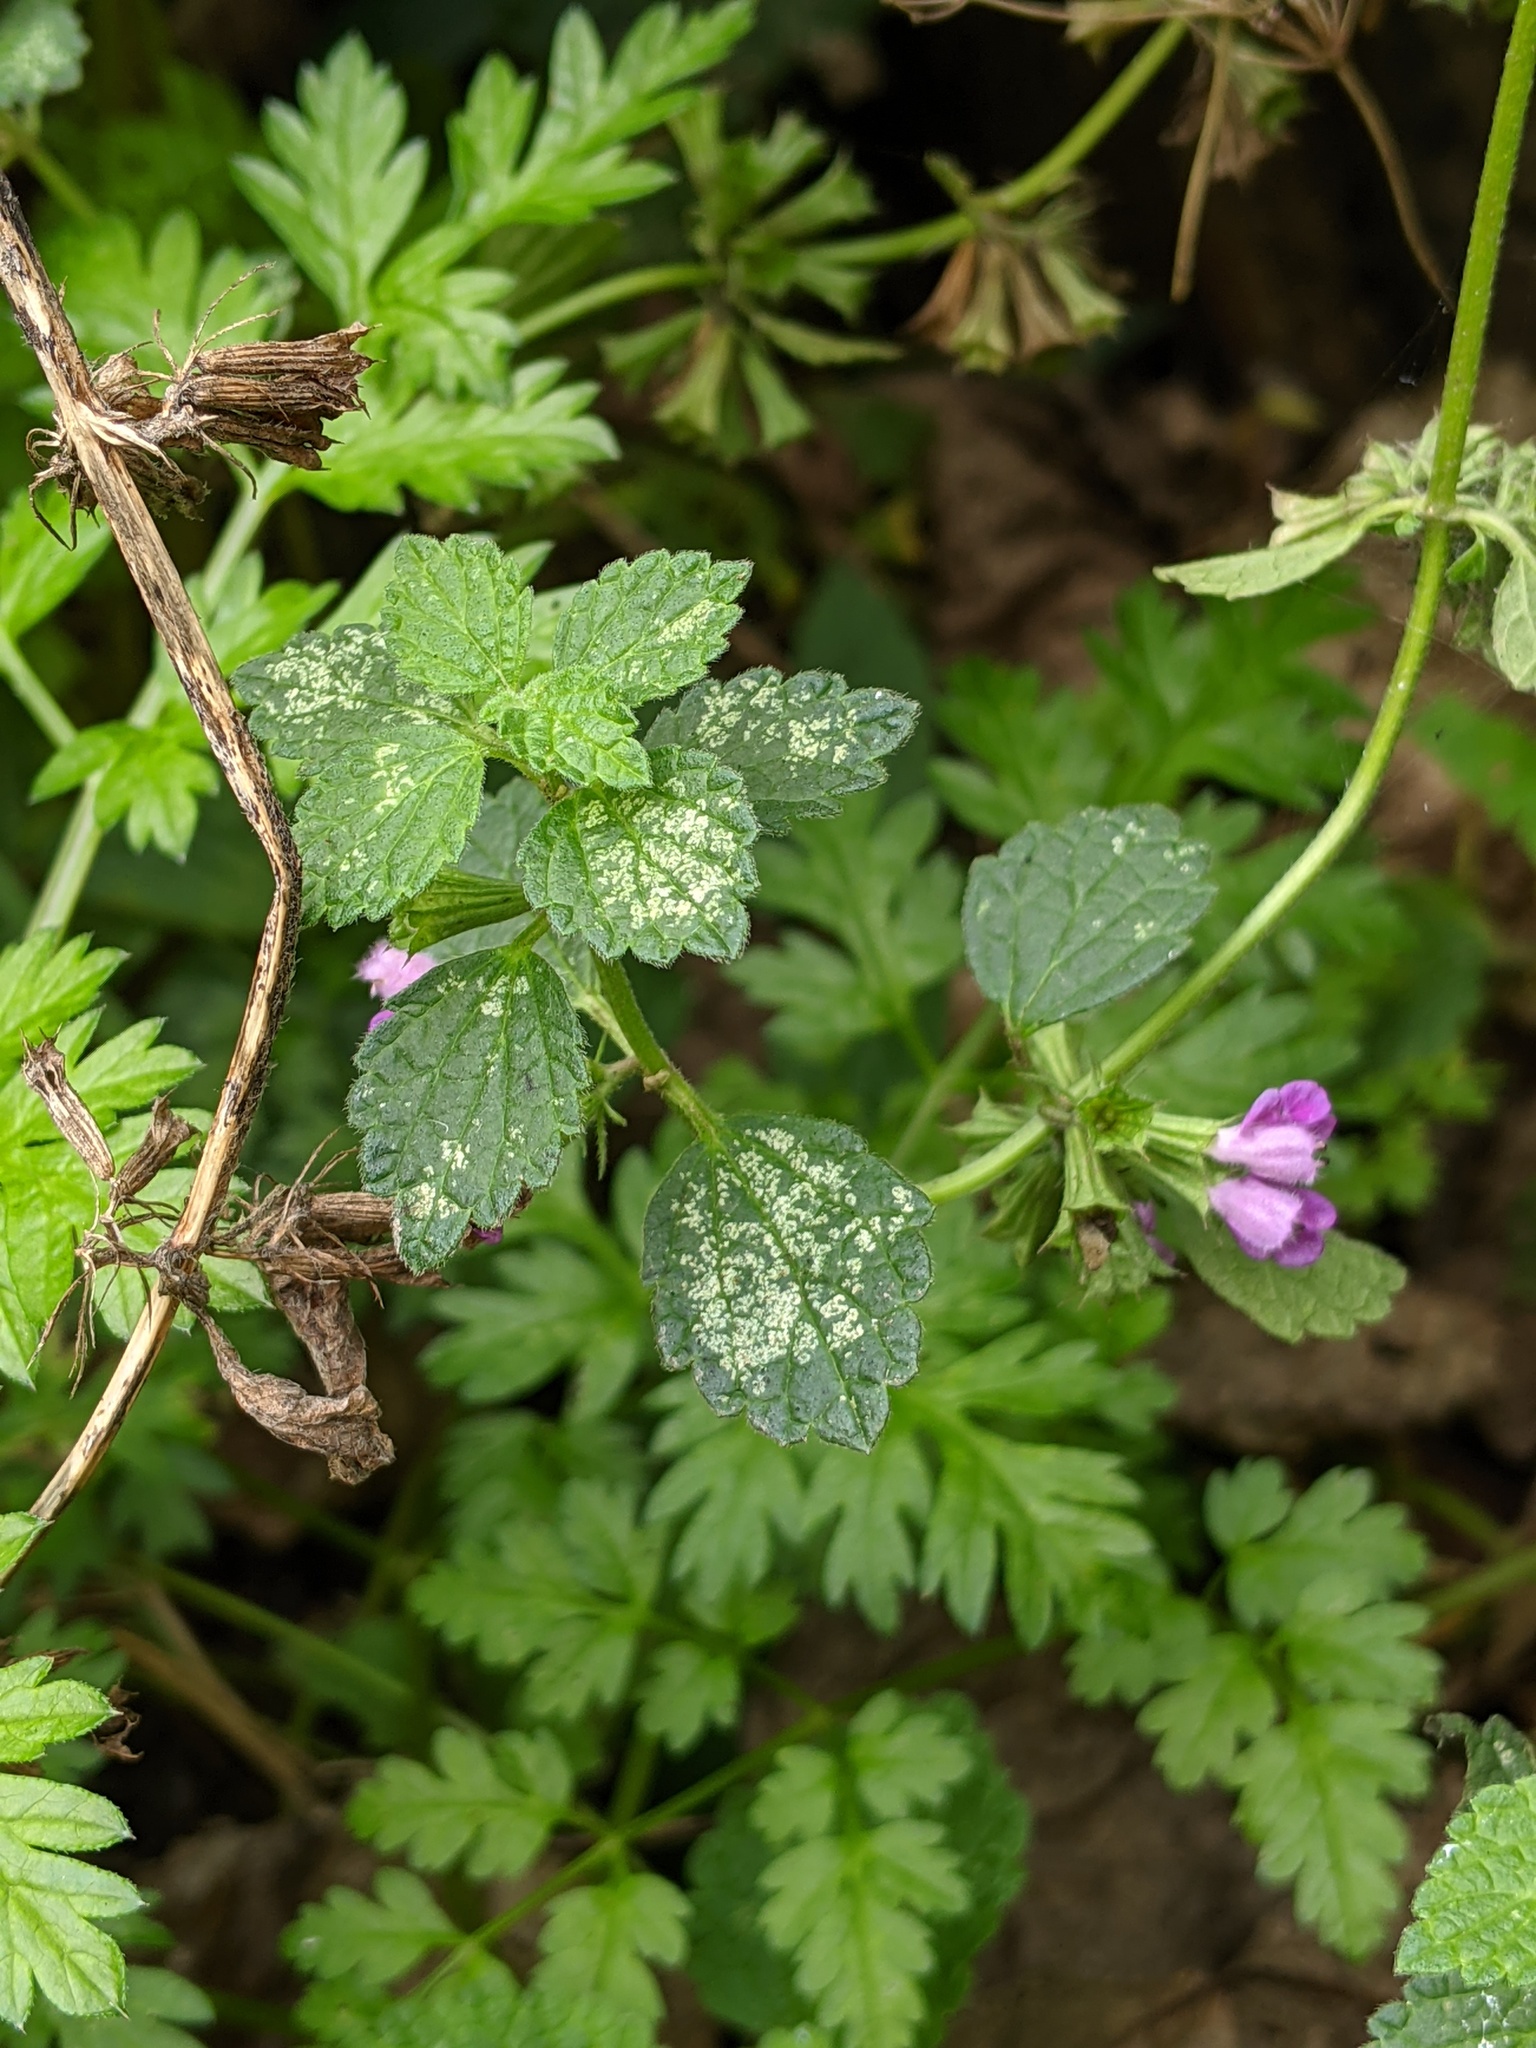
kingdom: Plantae
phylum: Tracheophyta
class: Magnoliopsida
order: Lamiales
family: Lamiaceae
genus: Ballota
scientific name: Ballota nigra
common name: Black horehound
